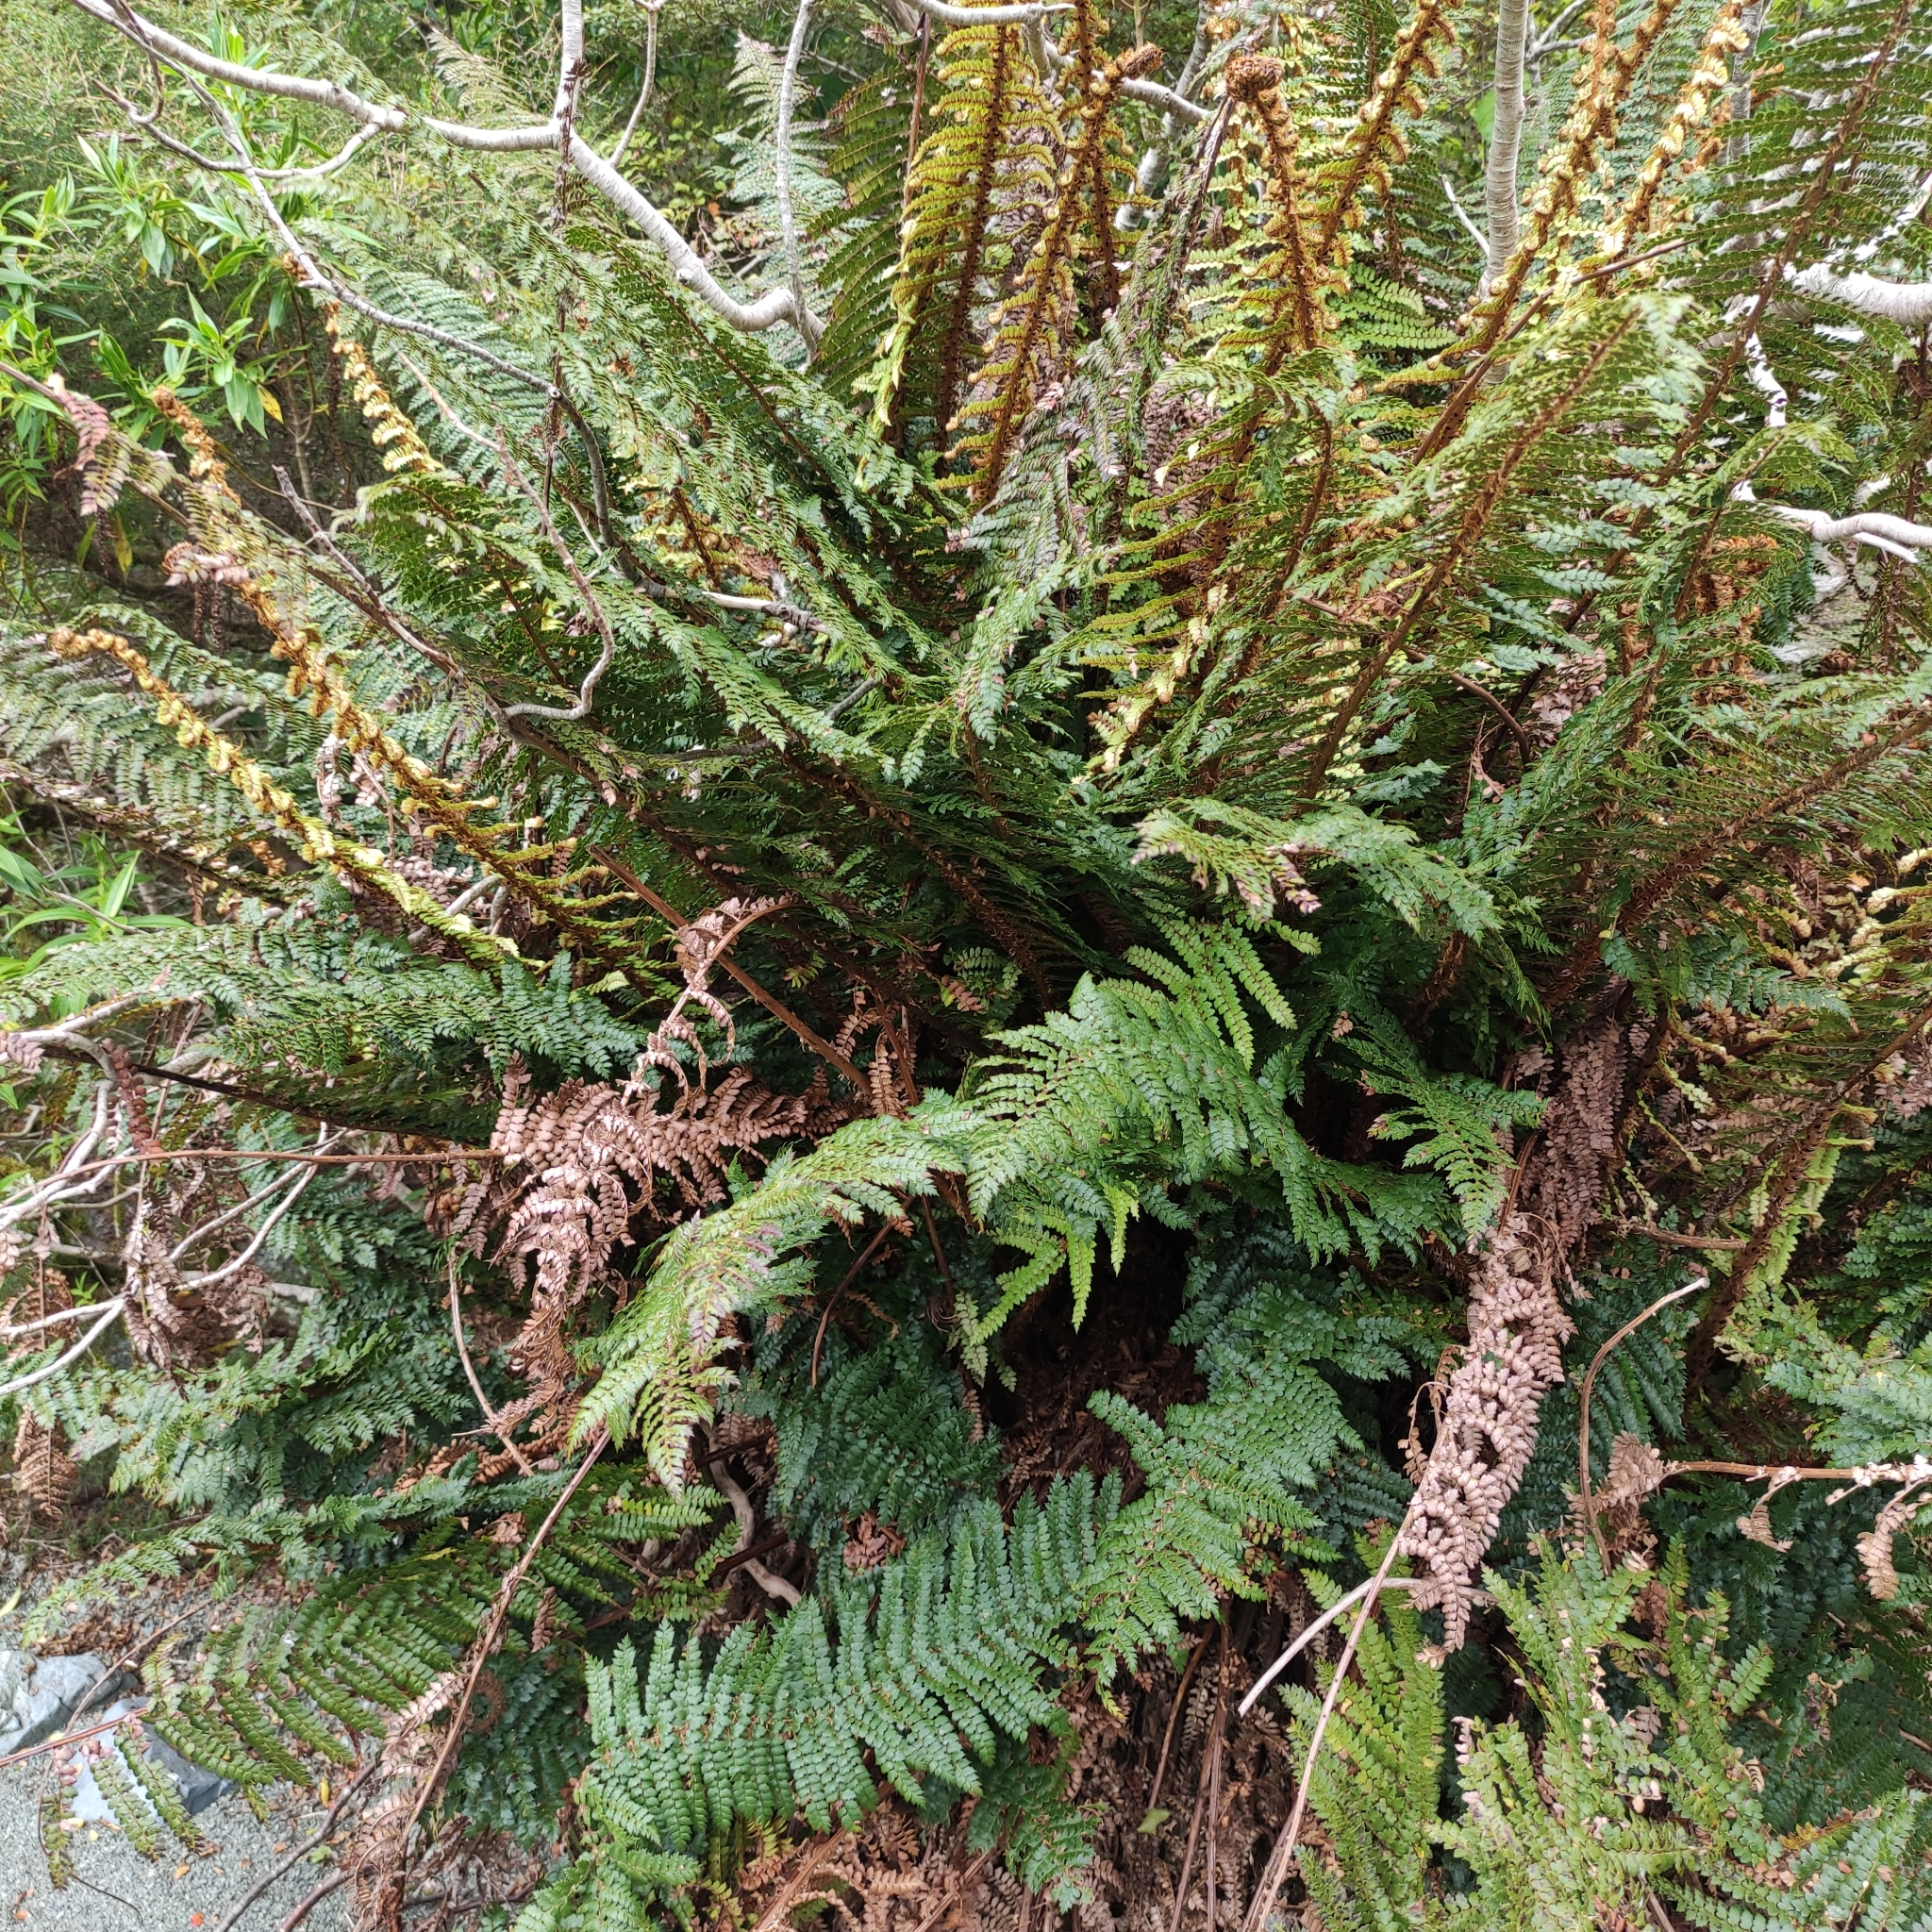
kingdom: Plantae
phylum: Tracheophyta
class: Polypodiopsida
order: Polypodiales
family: Dryopteridaceae
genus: Polystichum
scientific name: Polystichum vestitum
